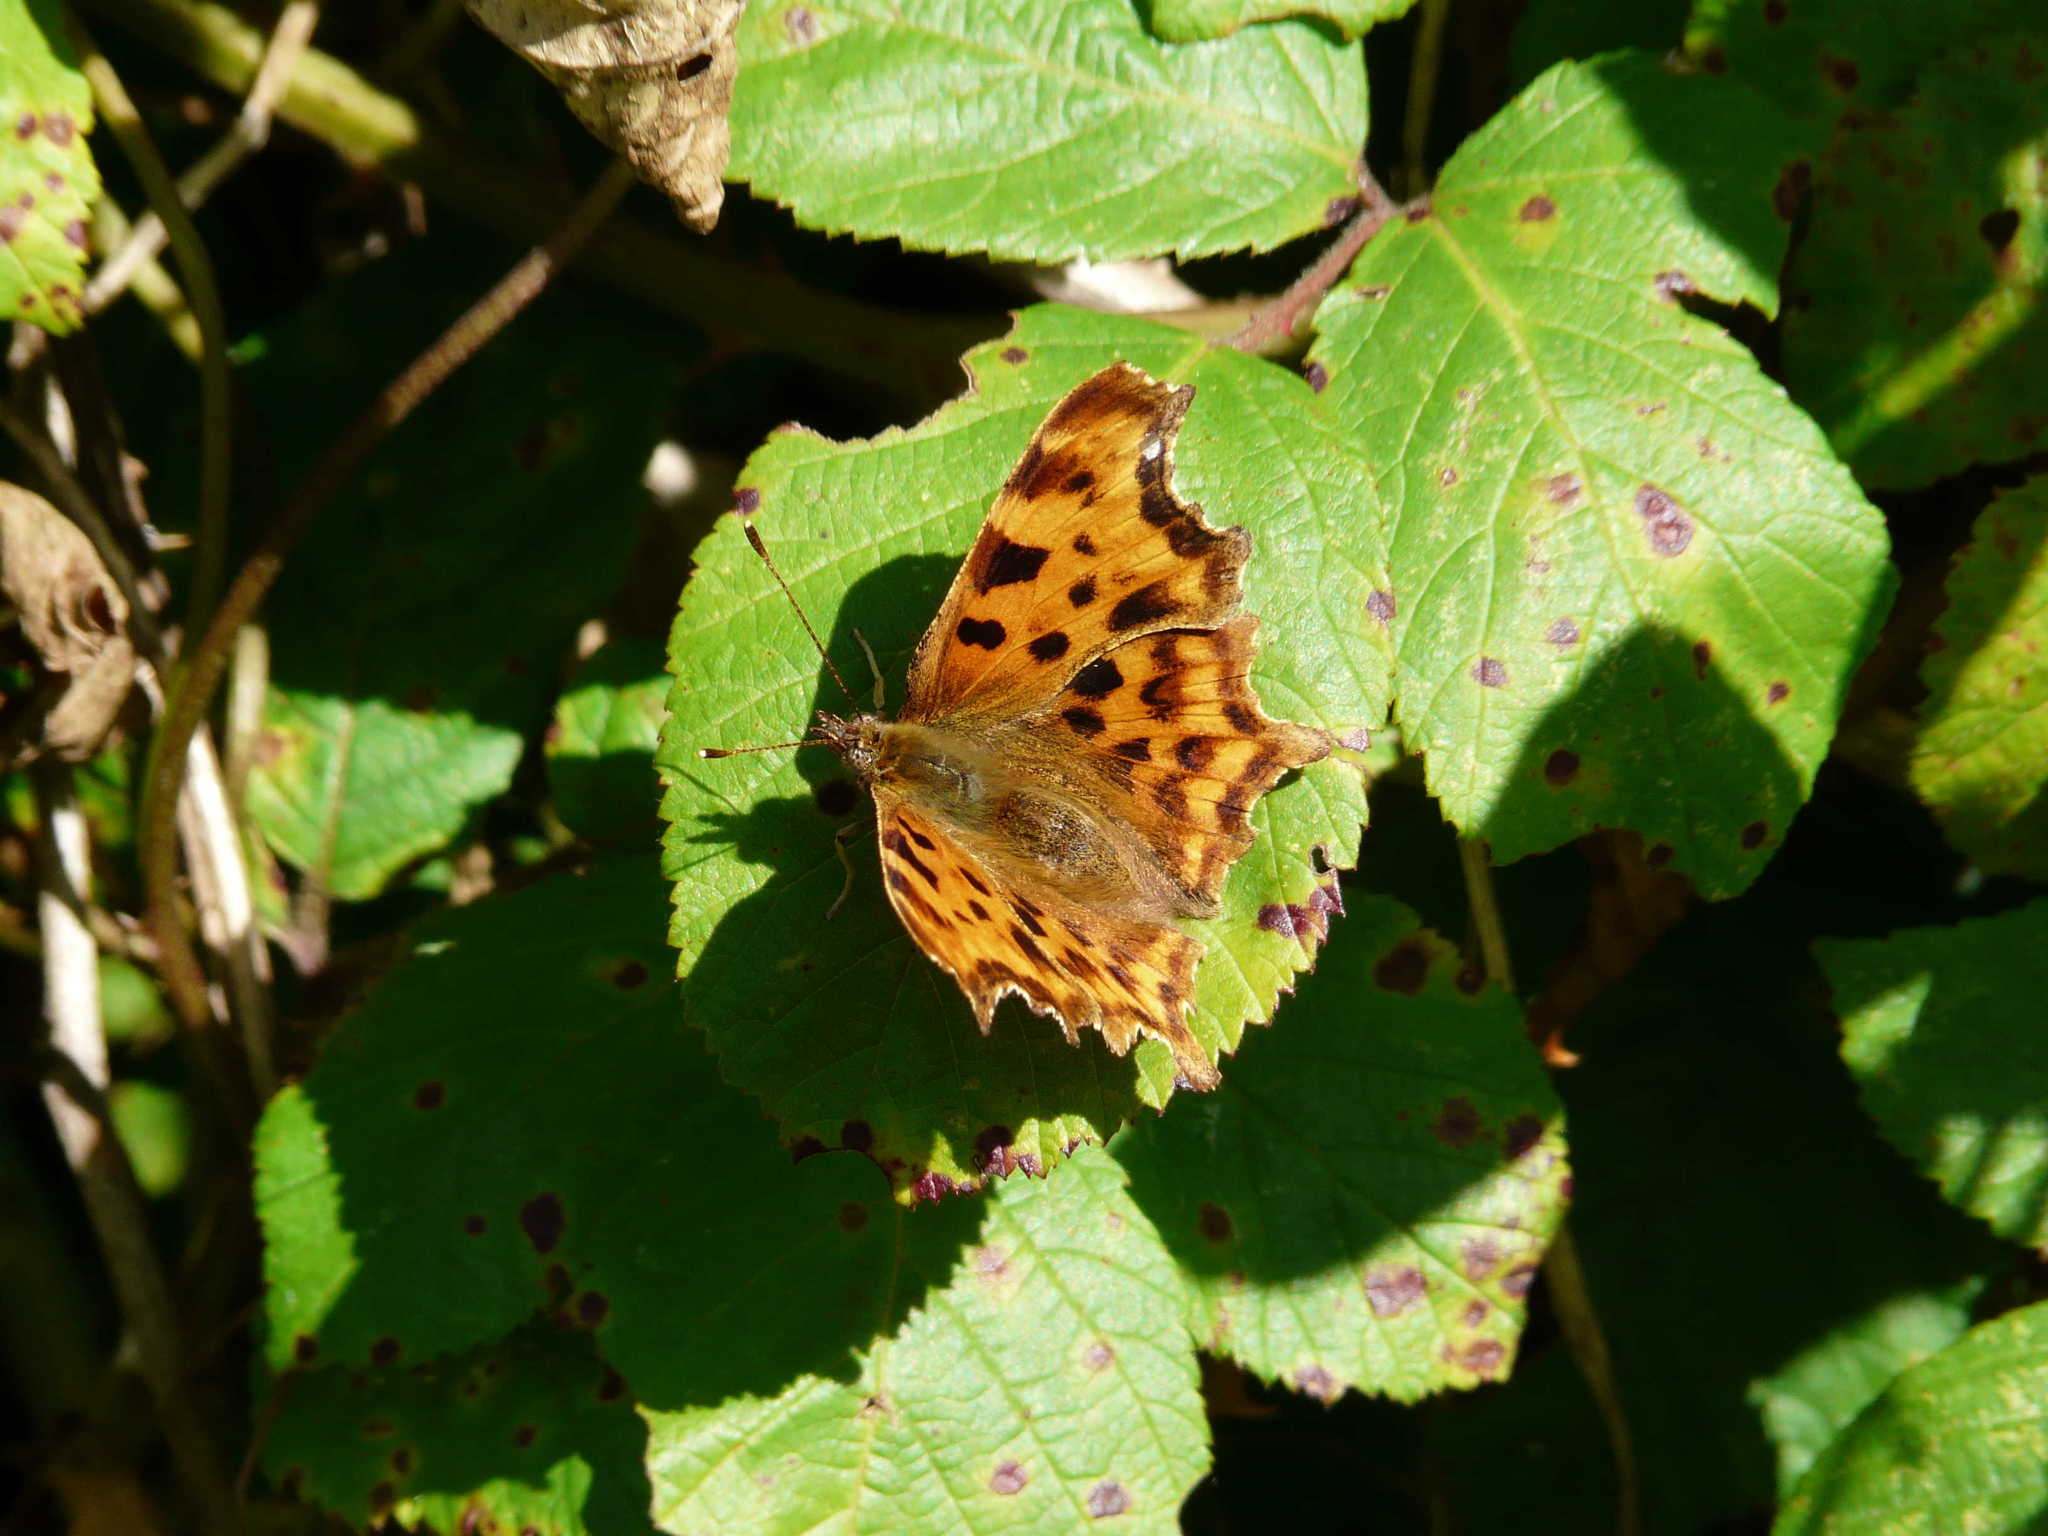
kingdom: Animalia
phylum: Arthropoda
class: Insecta
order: Lepidoptera
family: Nymphalidae
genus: Polygonia
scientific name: Polygonia c-album
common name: Comma
